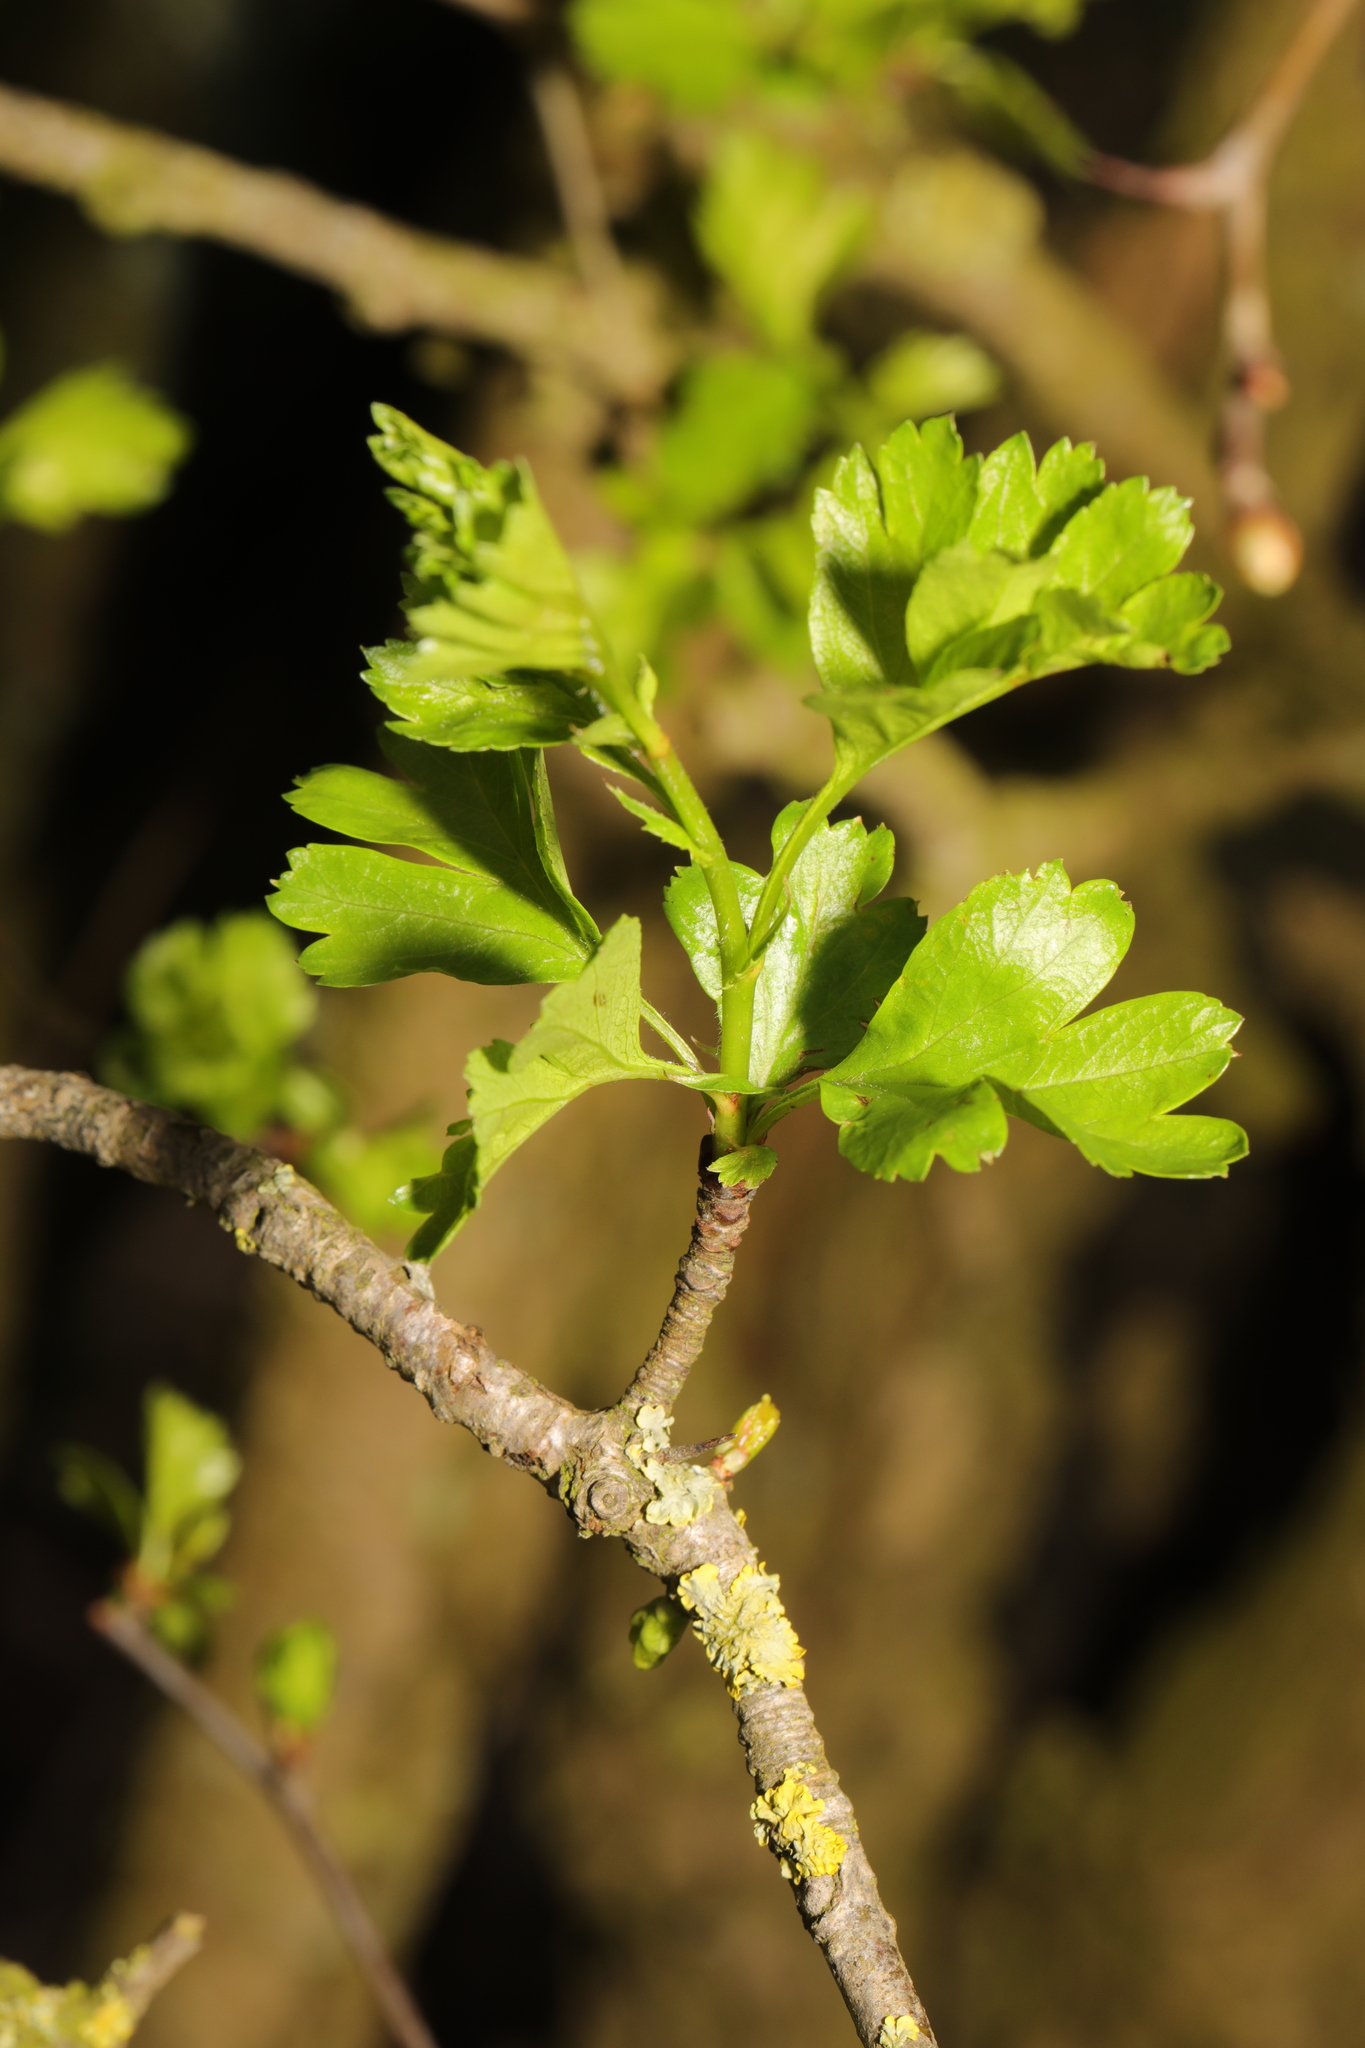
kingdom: Plantae
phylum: Tracheophyta
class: Magnoliopsida
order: Rosales
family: Rosaceae
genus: Crataegus
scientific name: Crataegus monogyna
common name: Hawthorn
